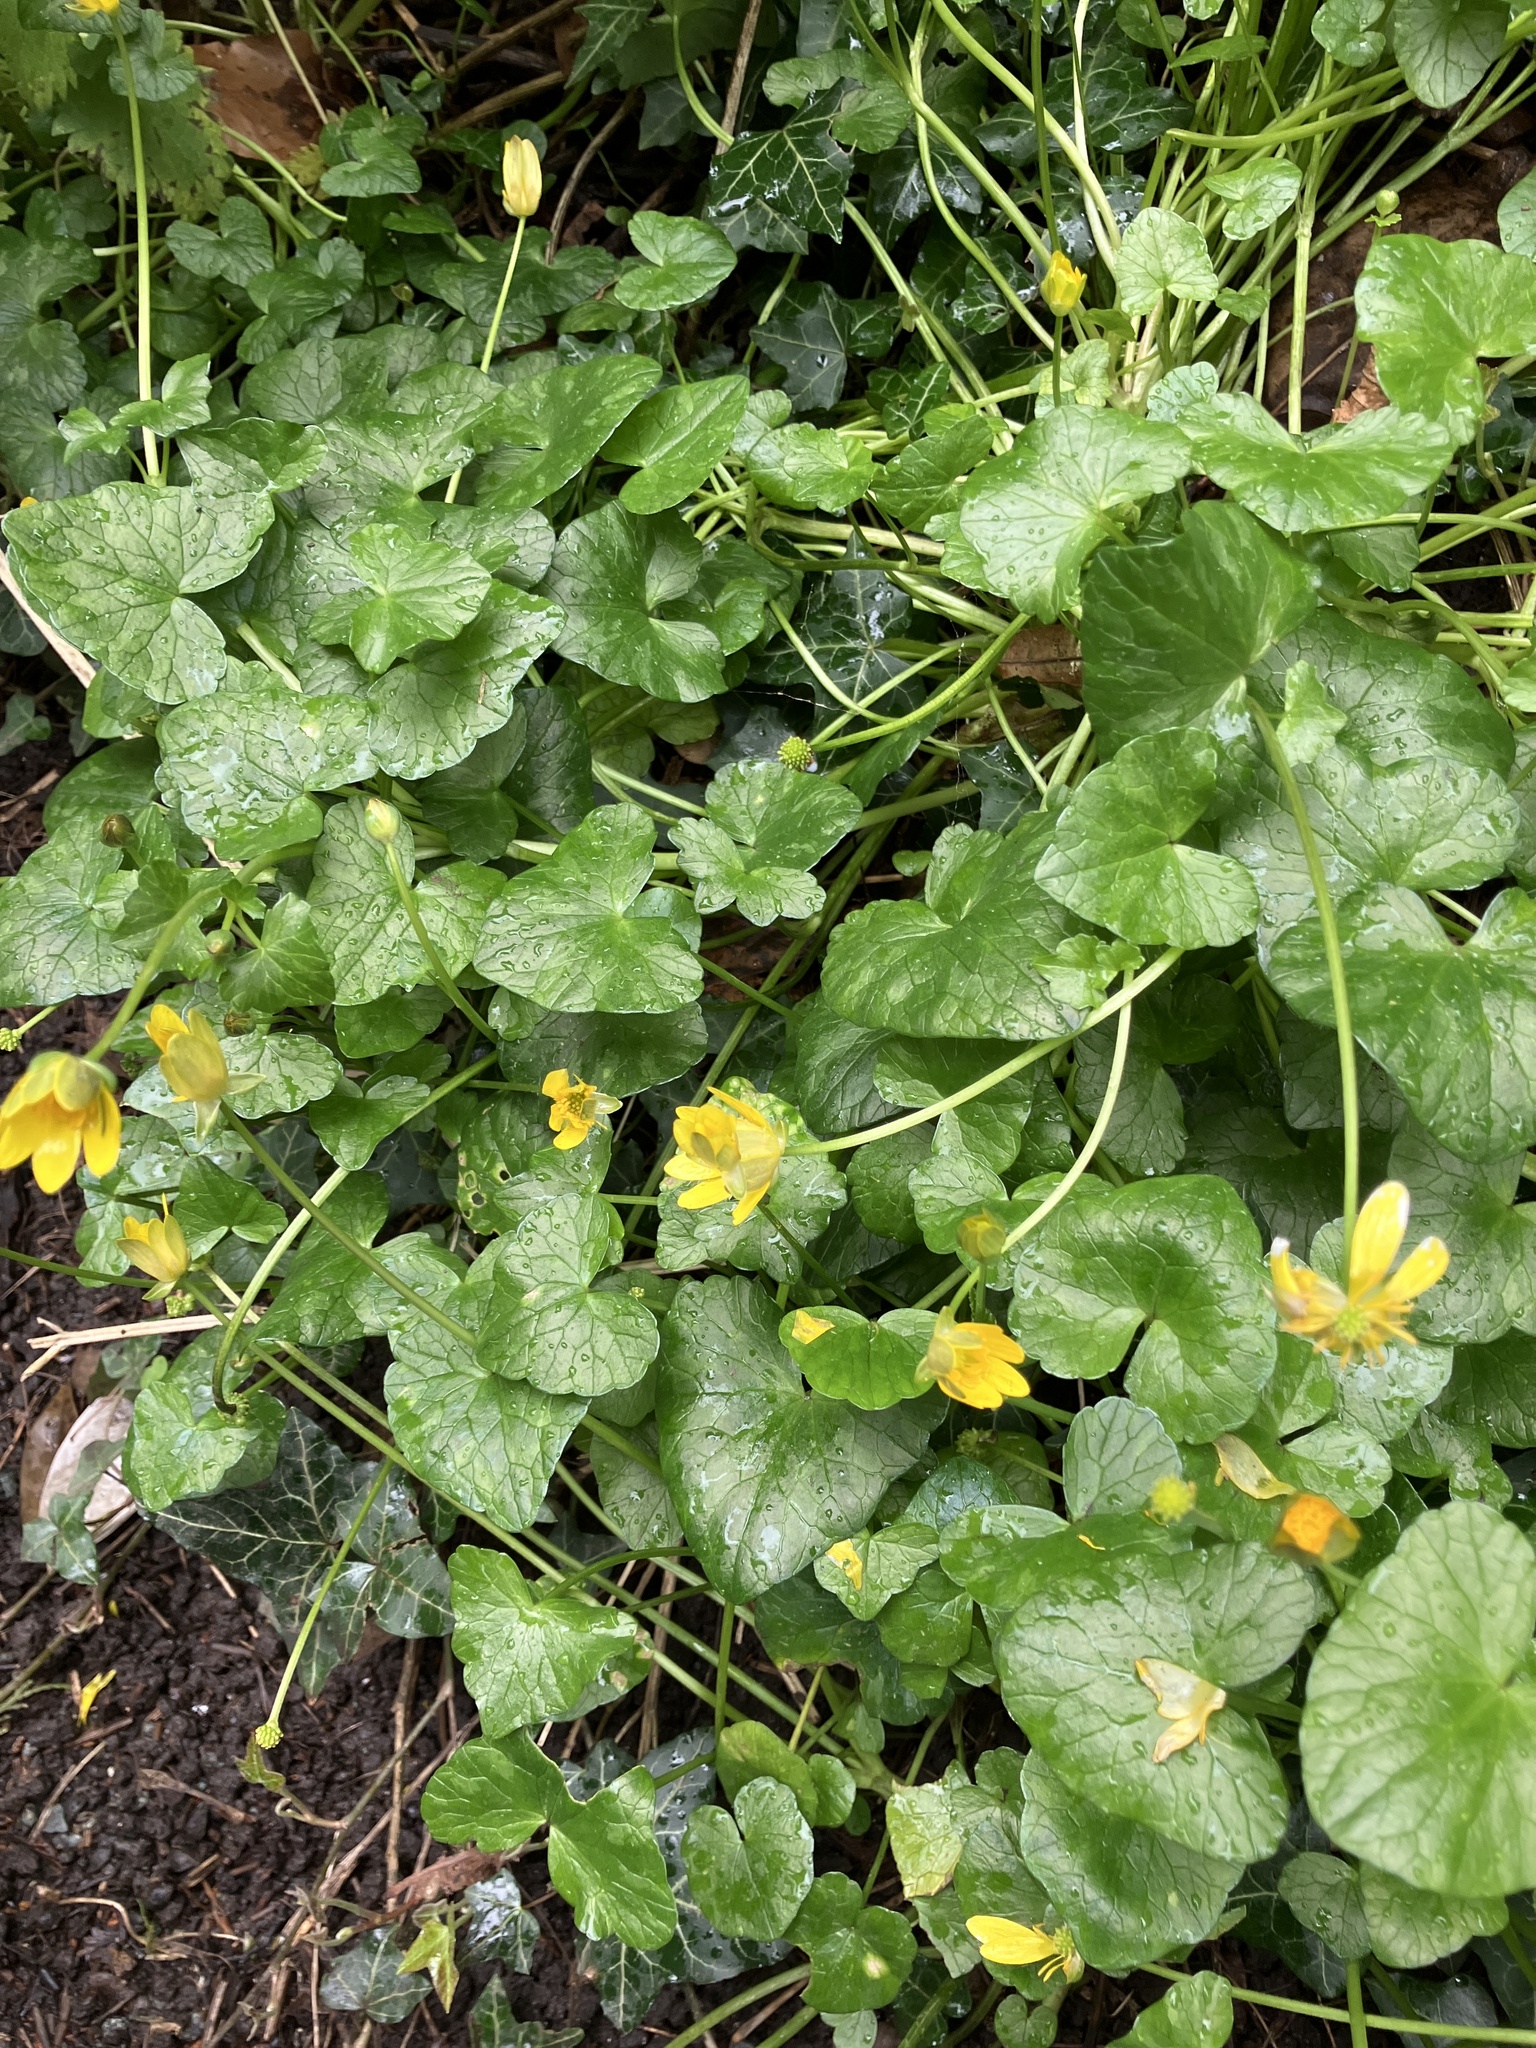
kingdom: Plantae
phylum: Tracheophyta
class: Magnoliopsida
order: Ranunculales
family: Ranunculaceae
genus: Ficaria
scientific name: Ficaria verna
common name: Lesser celandine
